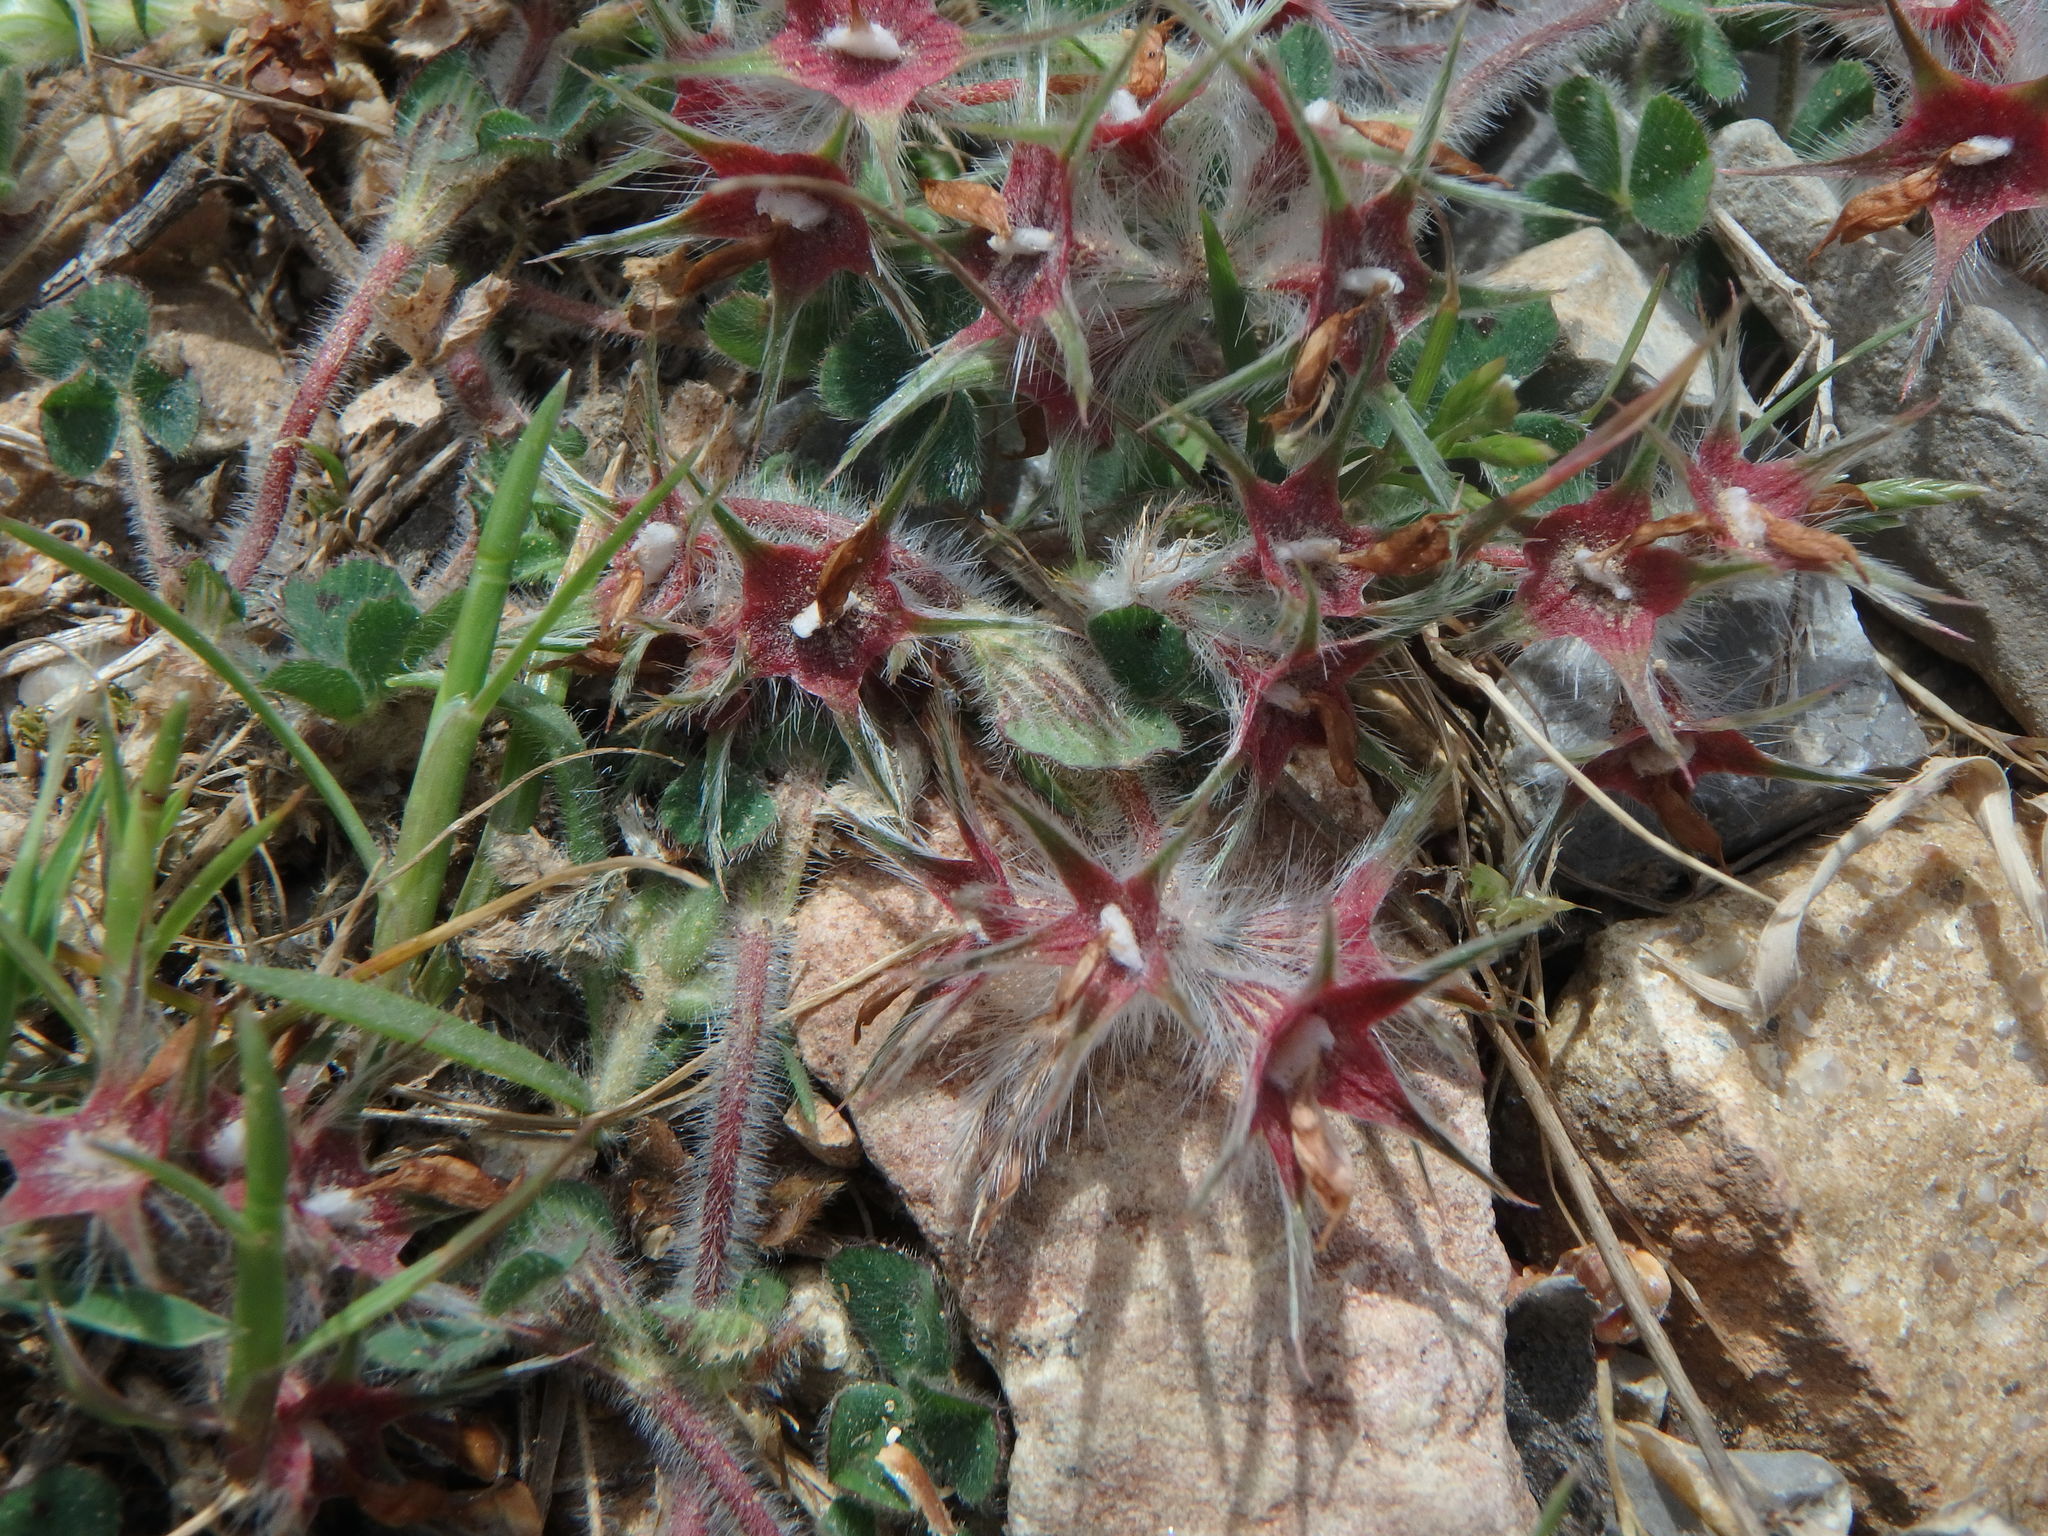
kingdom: Plantae
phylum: Tracheophyta
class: Magnoliopsida
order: Fabales
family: Fabaceae
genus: Trifolium
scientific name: Trifolium stellatum
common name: Starry clover
